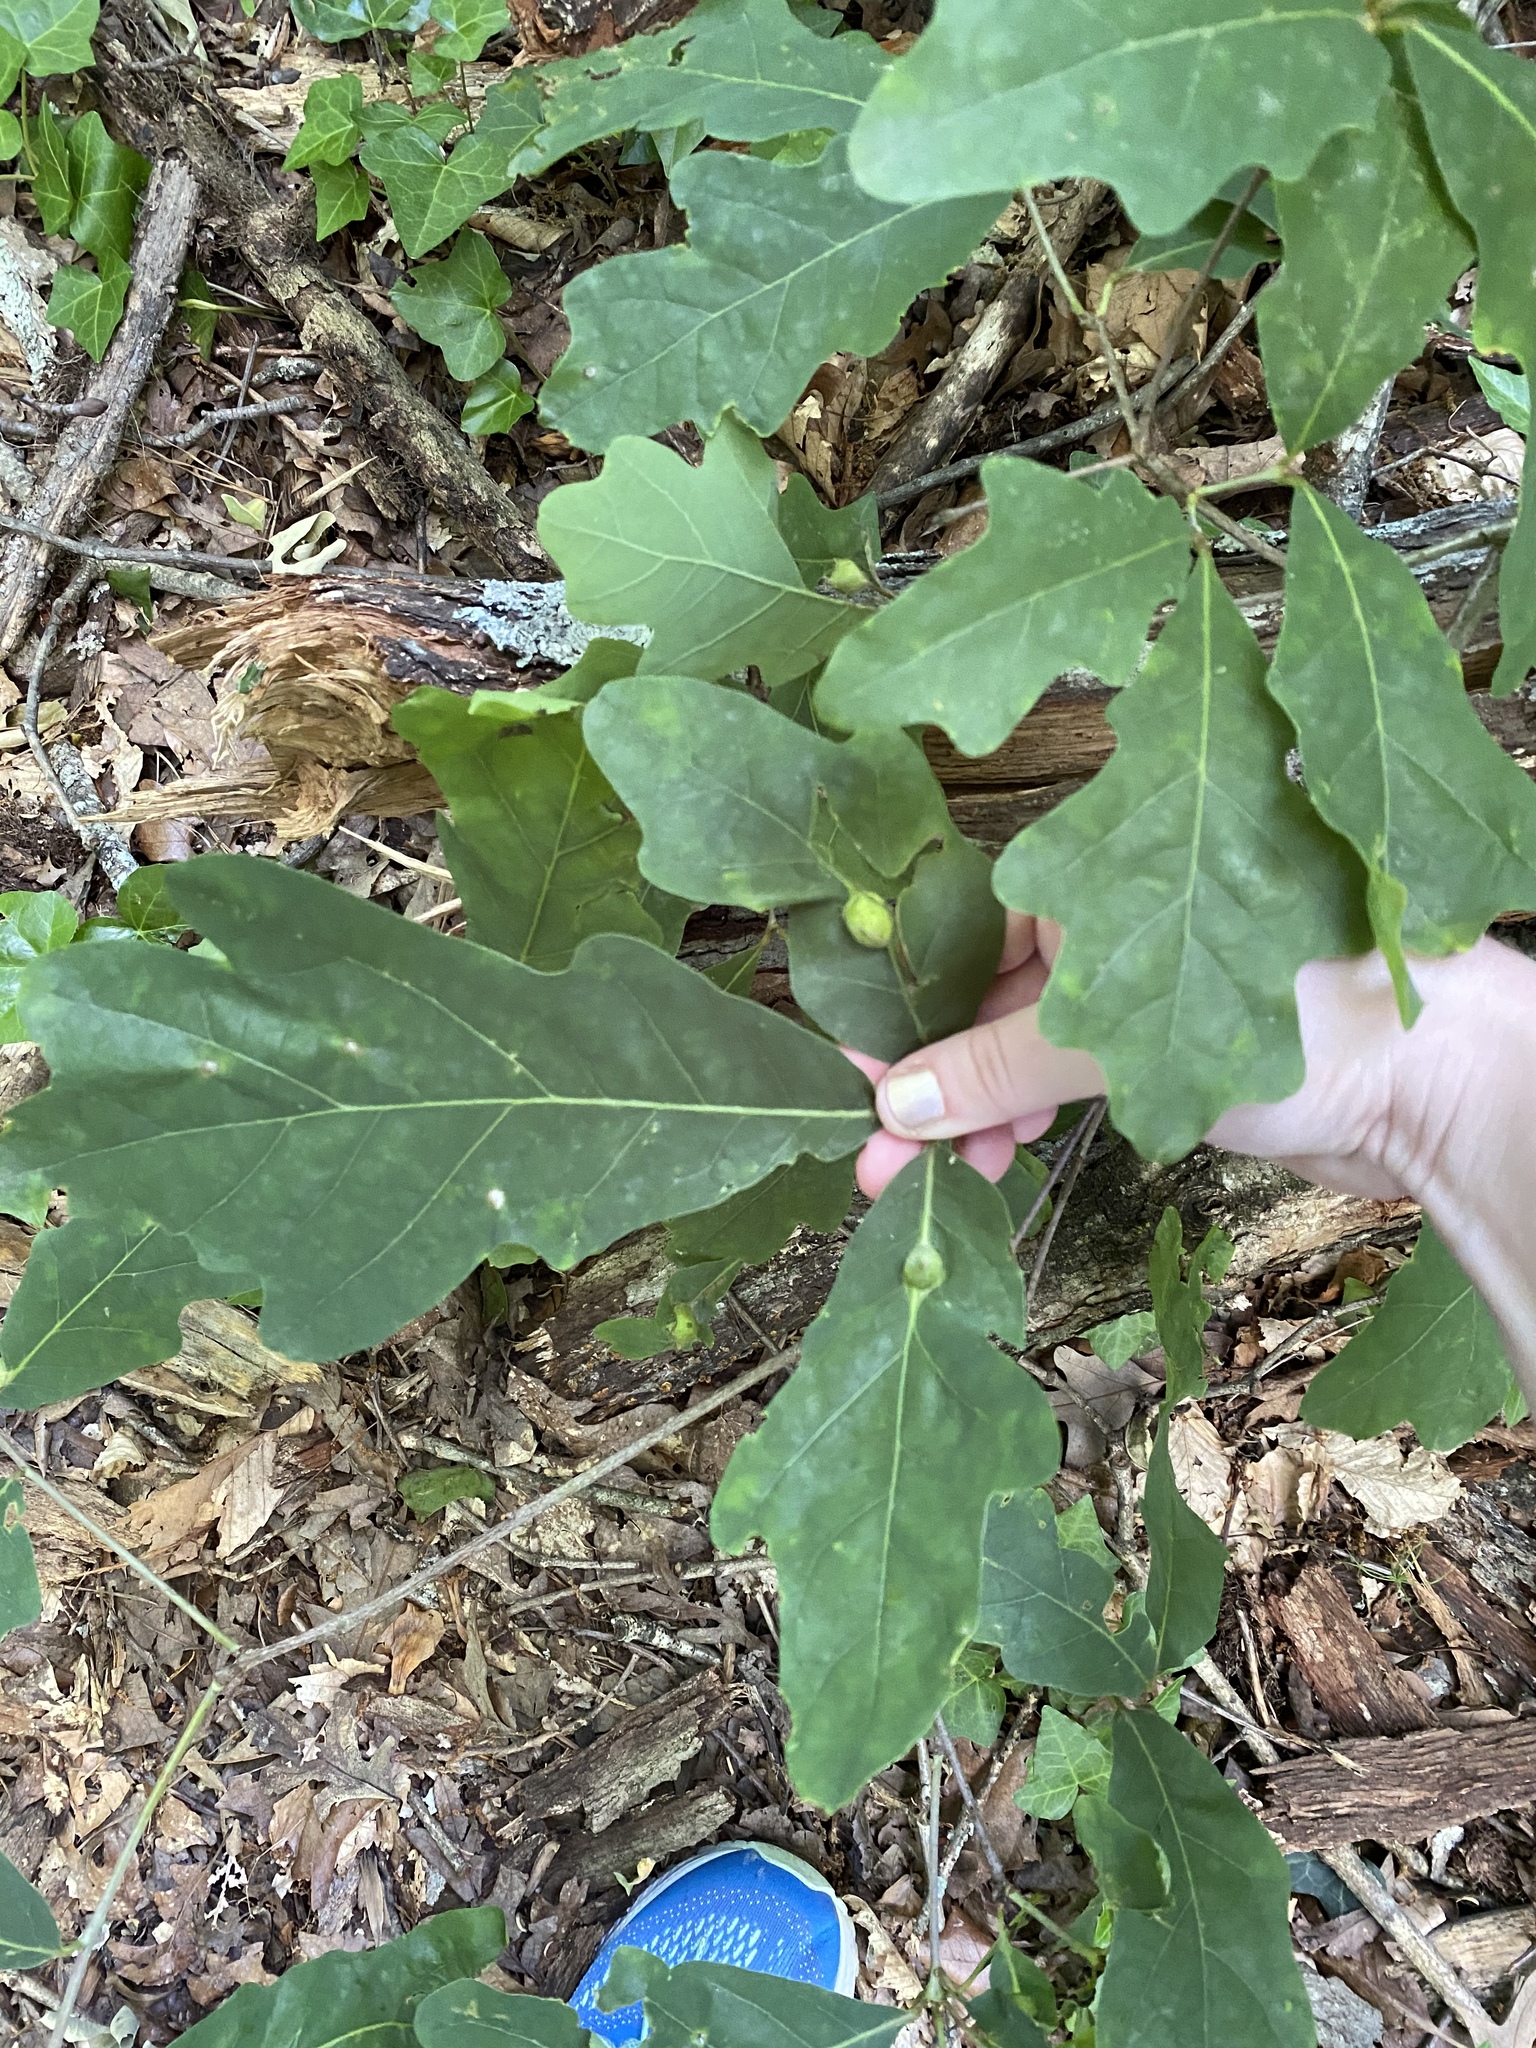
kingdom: Animalia
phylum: Arthropoda
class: Insecta
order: Hymenoptera
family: Cynipidae
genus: Andricus
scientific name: Andricus
